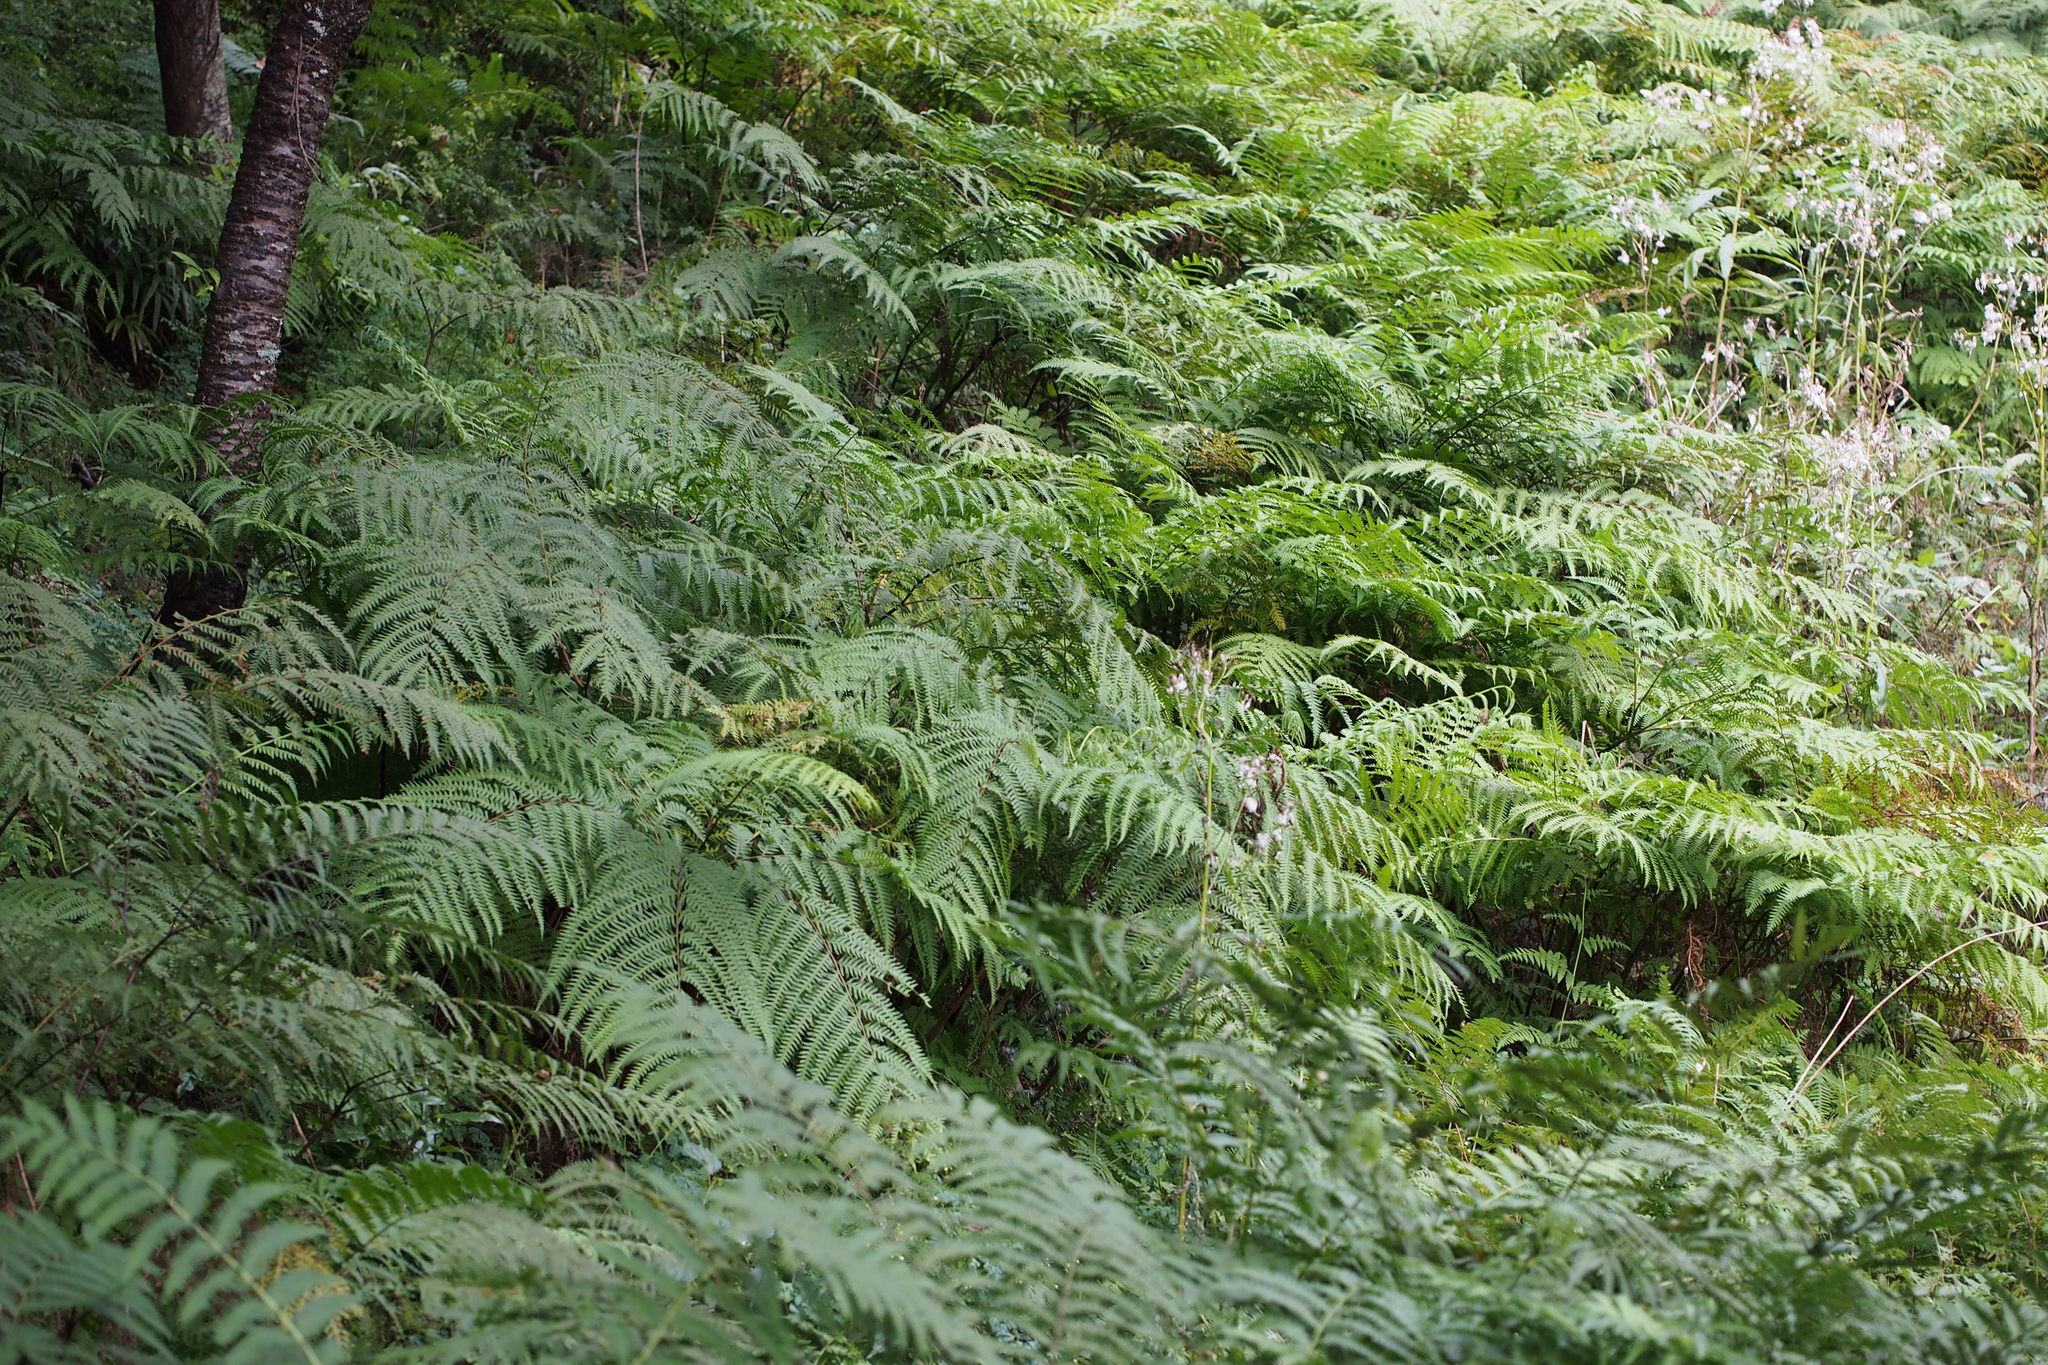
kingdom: Plantae
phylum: Tracheophyta
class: Polypodiopsida
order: Polypodiales
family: Pteridaceae
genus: Pteris
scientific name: Pteris wallichiana
